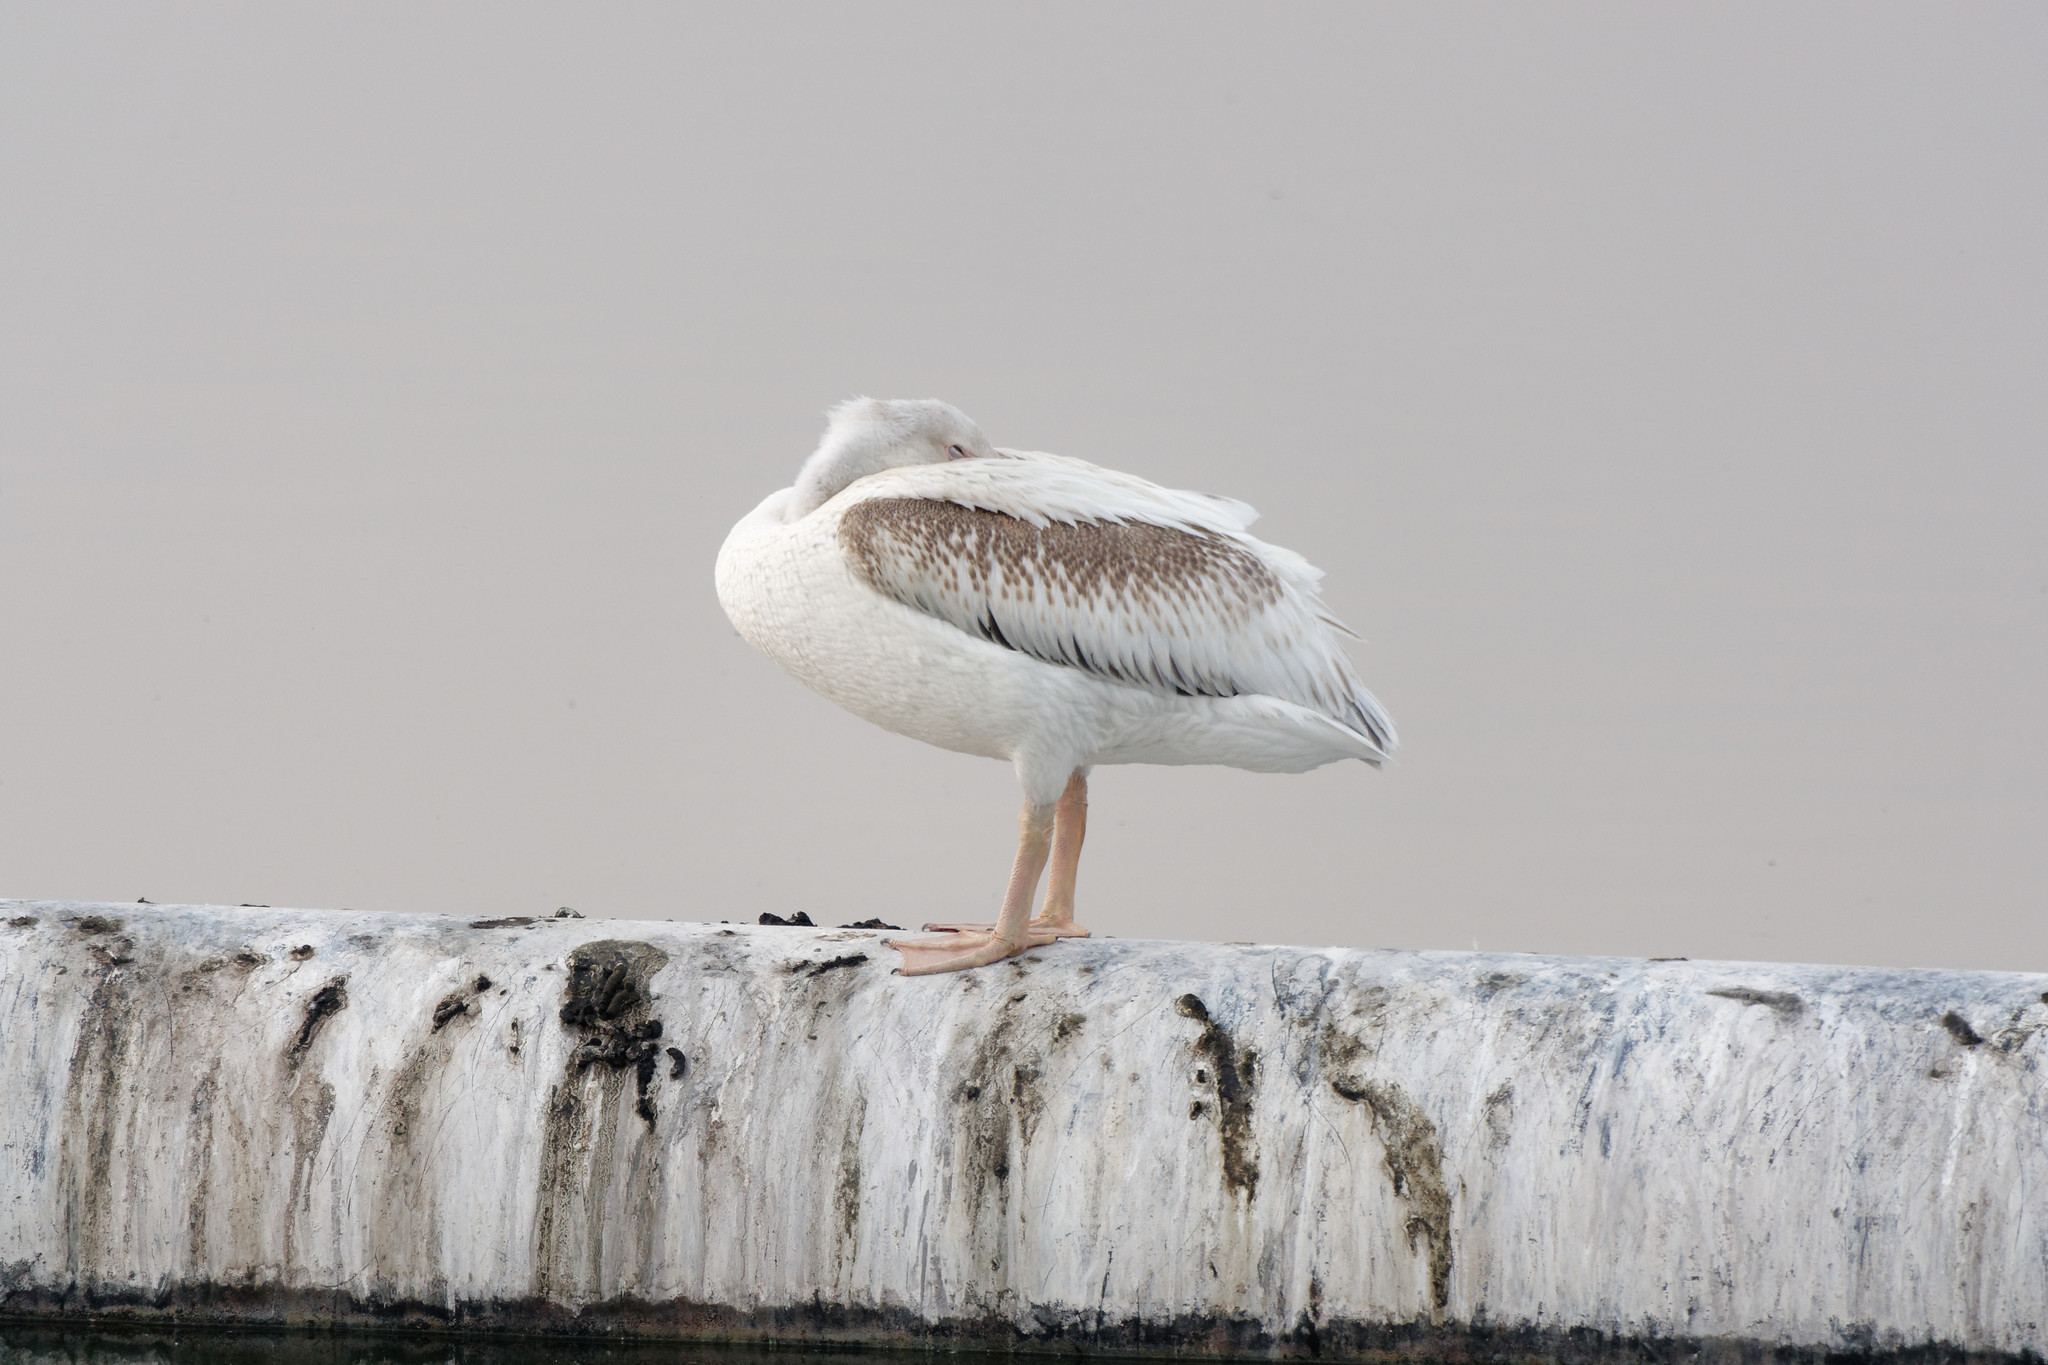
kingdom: Animalia
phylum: Chordata
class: Aves
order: Pelecaniformes
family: Pelecanidae
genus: Pelecanus
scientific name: Pelecanus erythrorhynchos
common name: American white pelican
